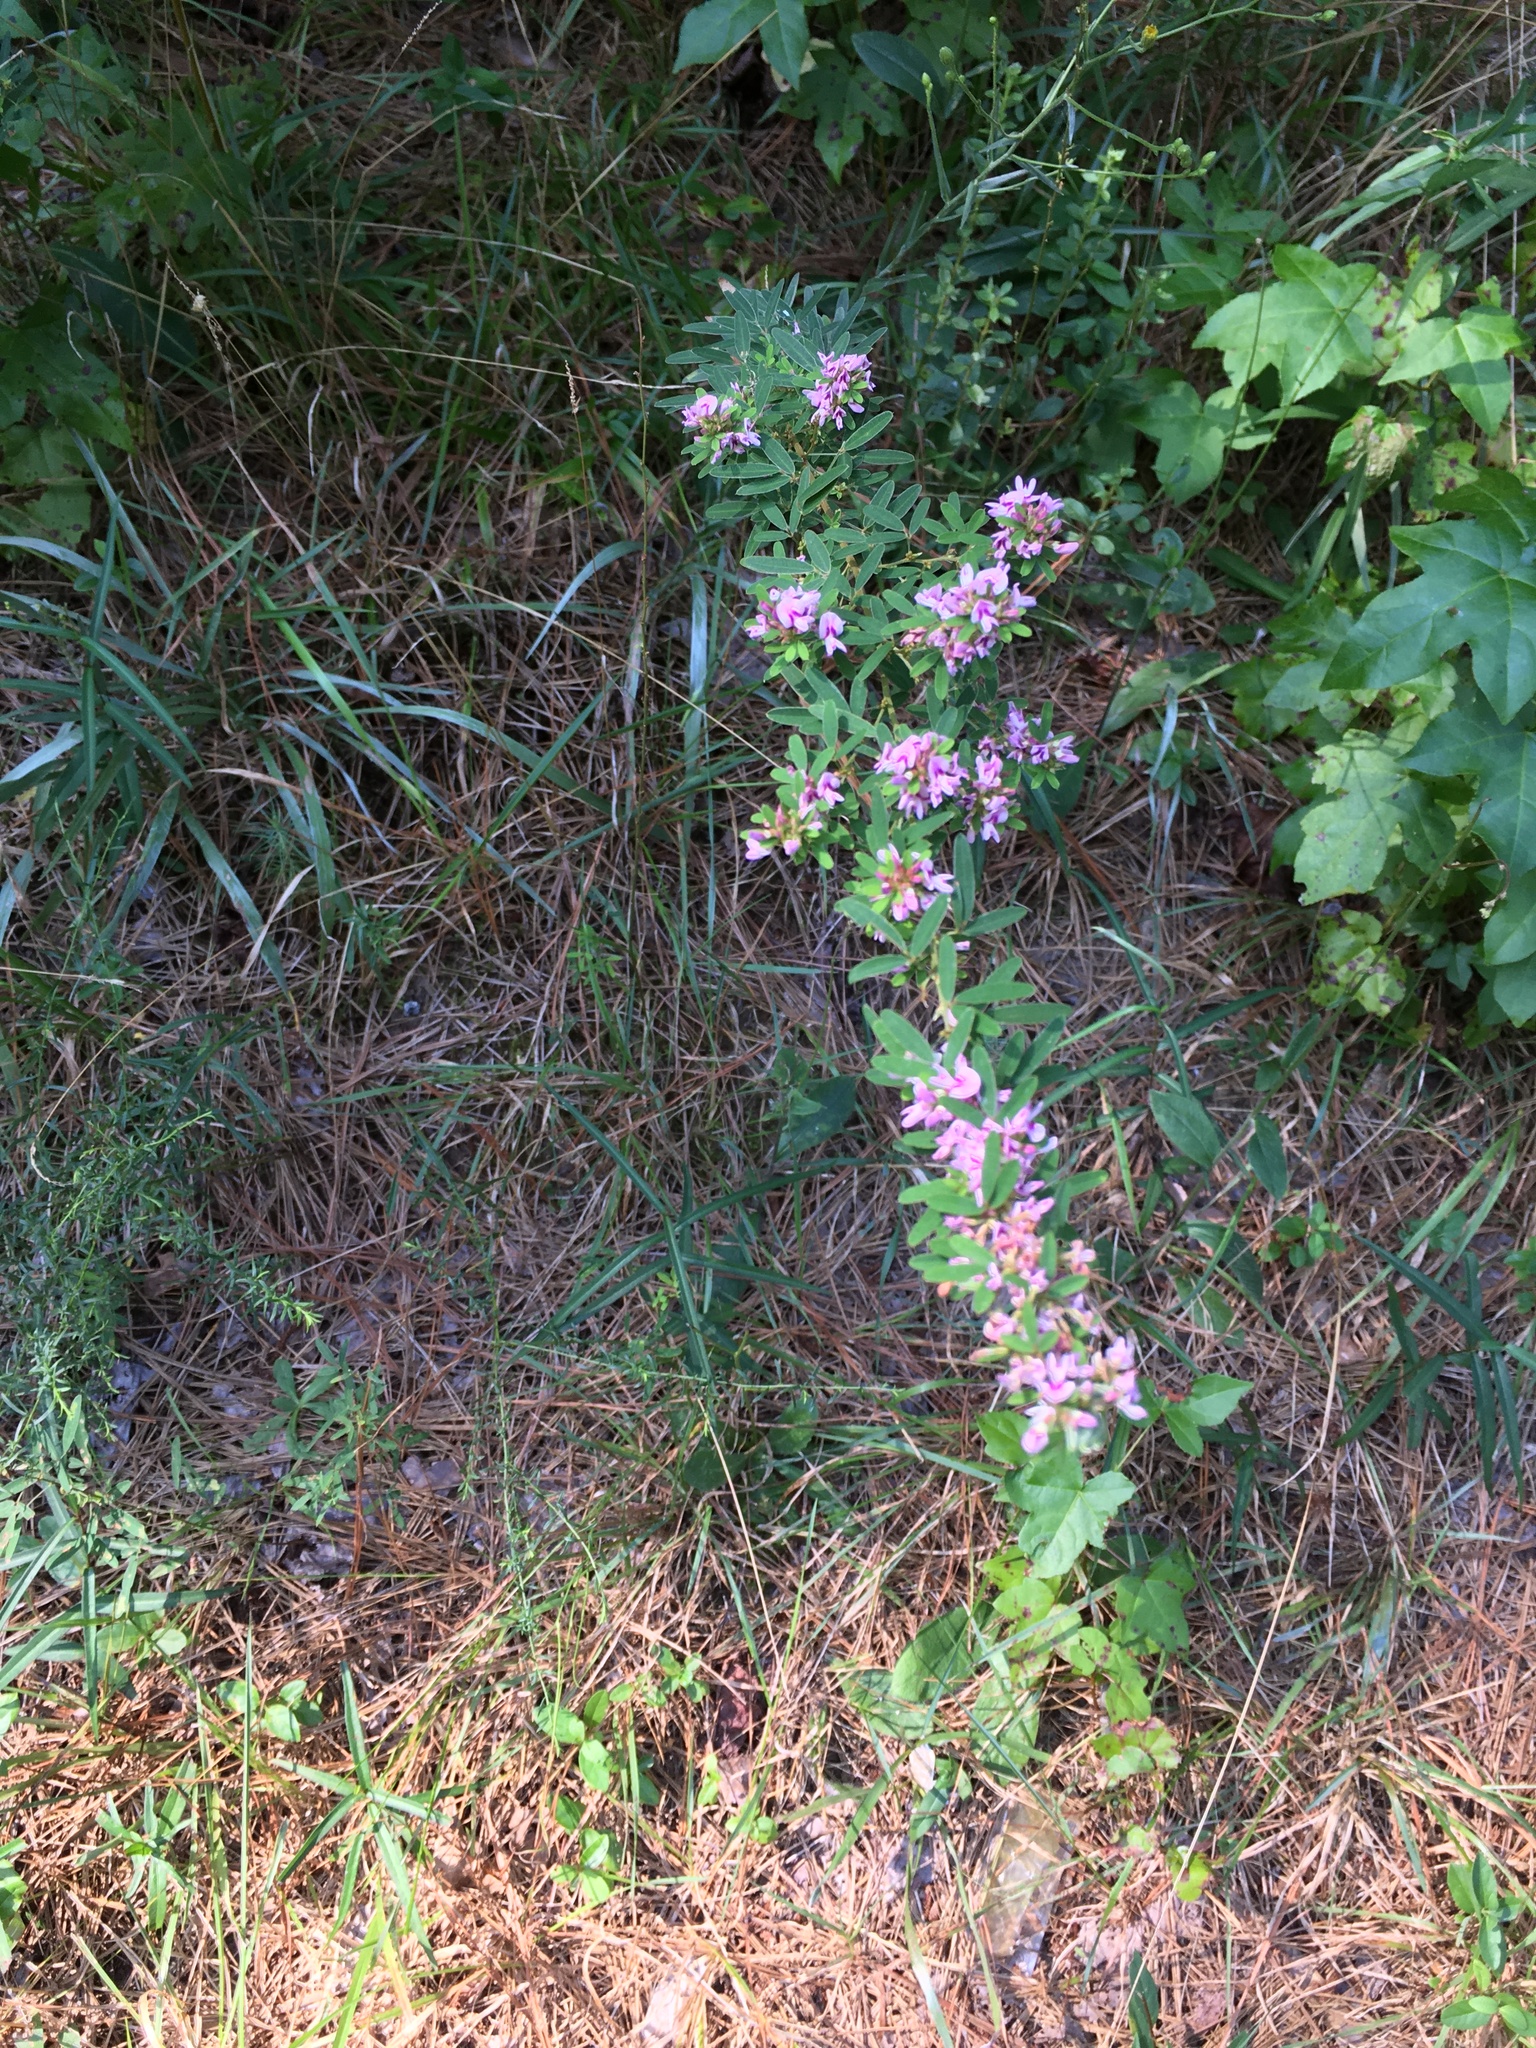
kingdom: Plantae
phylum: Tracheophyta
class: Magnoliopsida
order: Fabales
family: Fabaceae
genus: Lespedeza
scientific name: Lespedeza virginica
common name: Slender bush-clover
